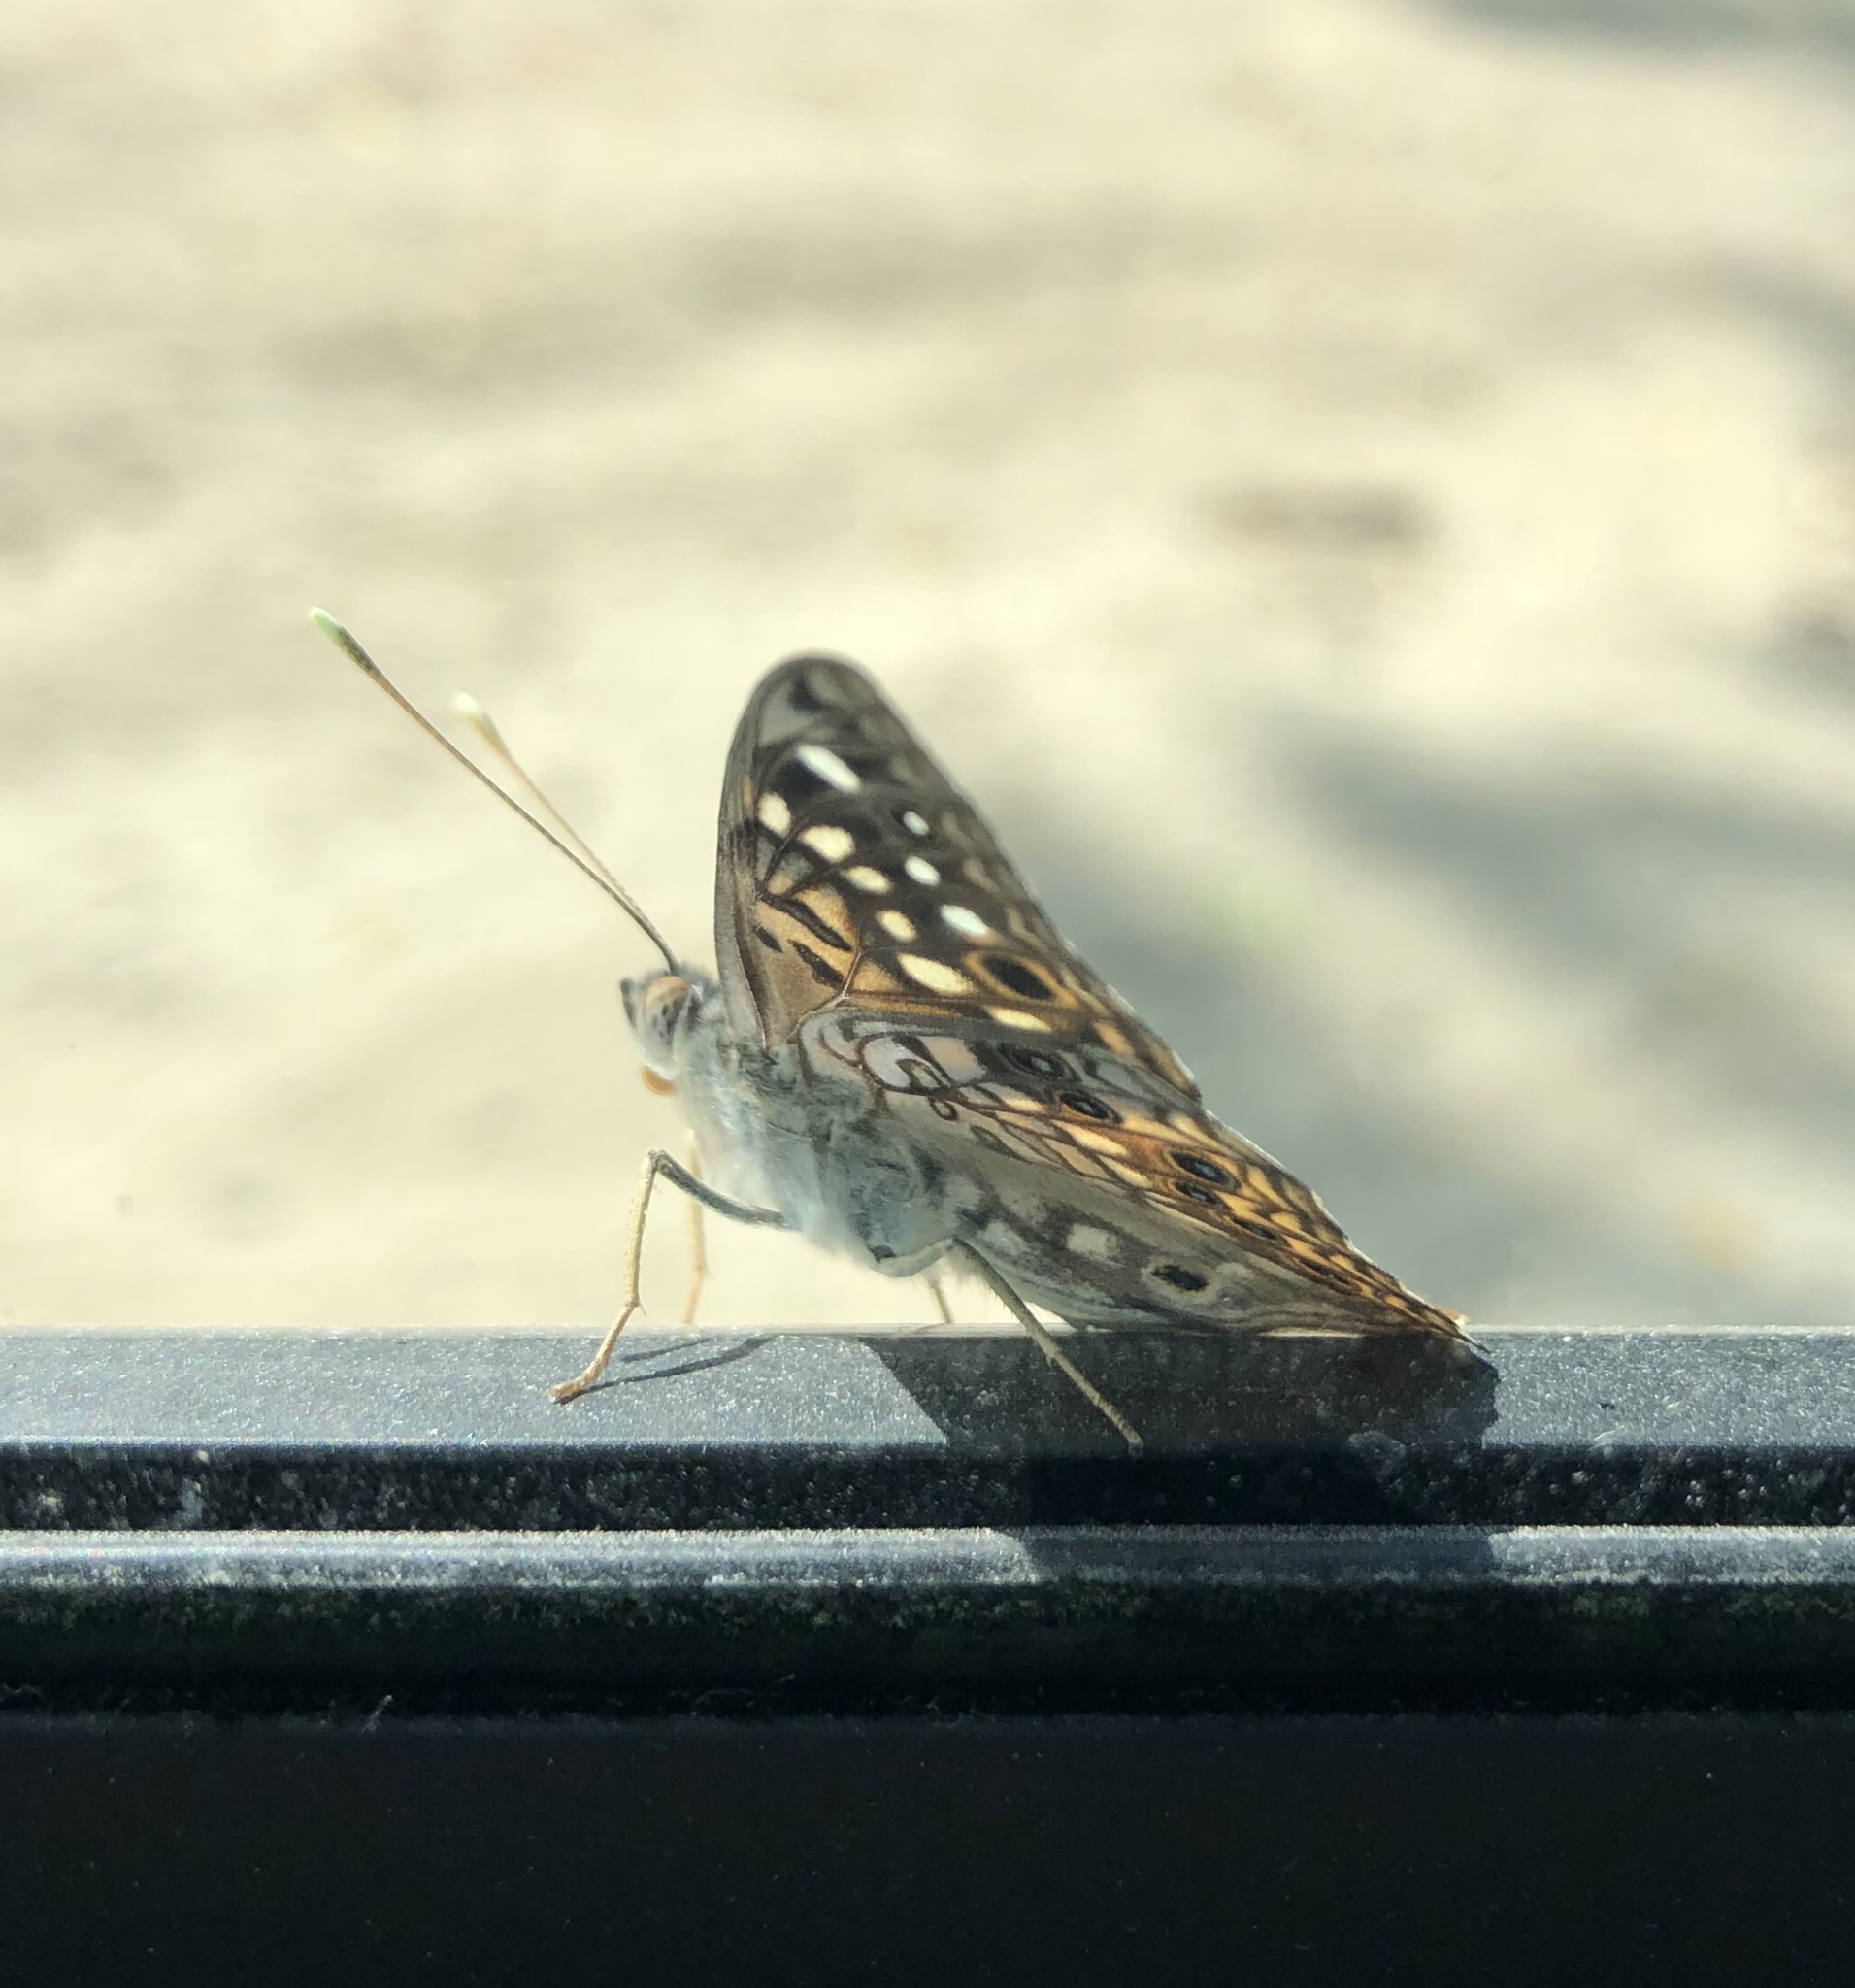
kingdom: Animalia
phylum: Arthropoda
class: Insecta
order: Lepidoptera
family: Nymphalidae
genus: Asterocampa
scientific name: Asterocampa celtis
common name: Hackberry emperor
